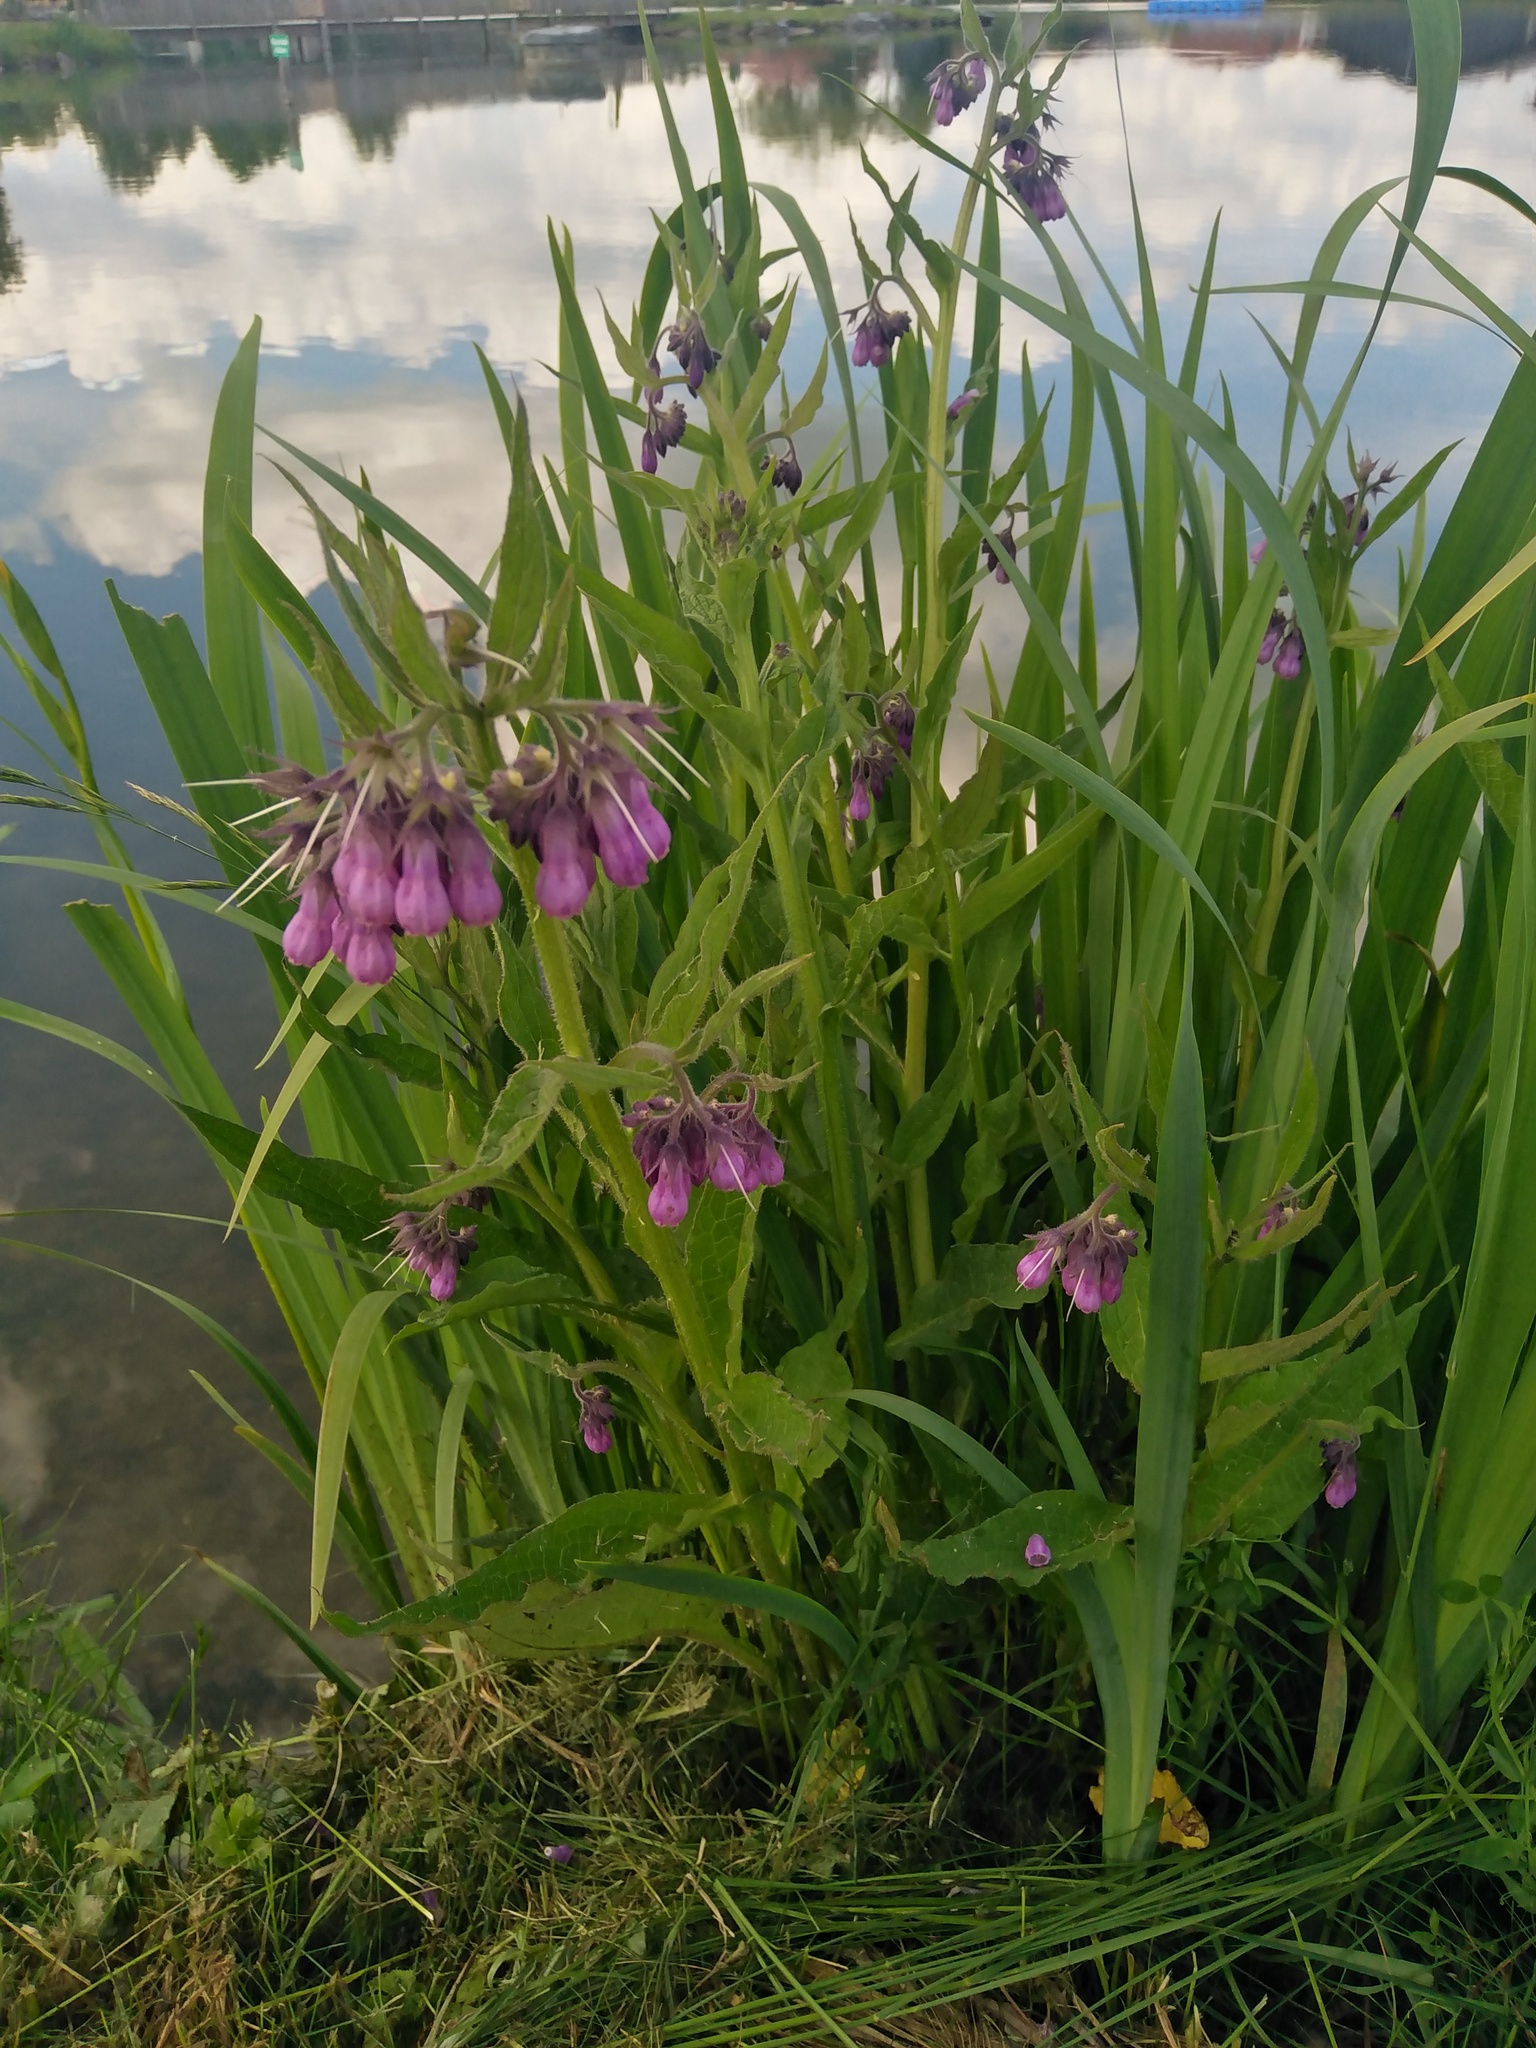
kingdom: Plantae
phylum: Tracheophyta
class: Magnoliopsida
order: Boraginales
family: Boraginaceae
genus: Symphytum
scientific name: Symphytum officinale
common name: Common comfrey
